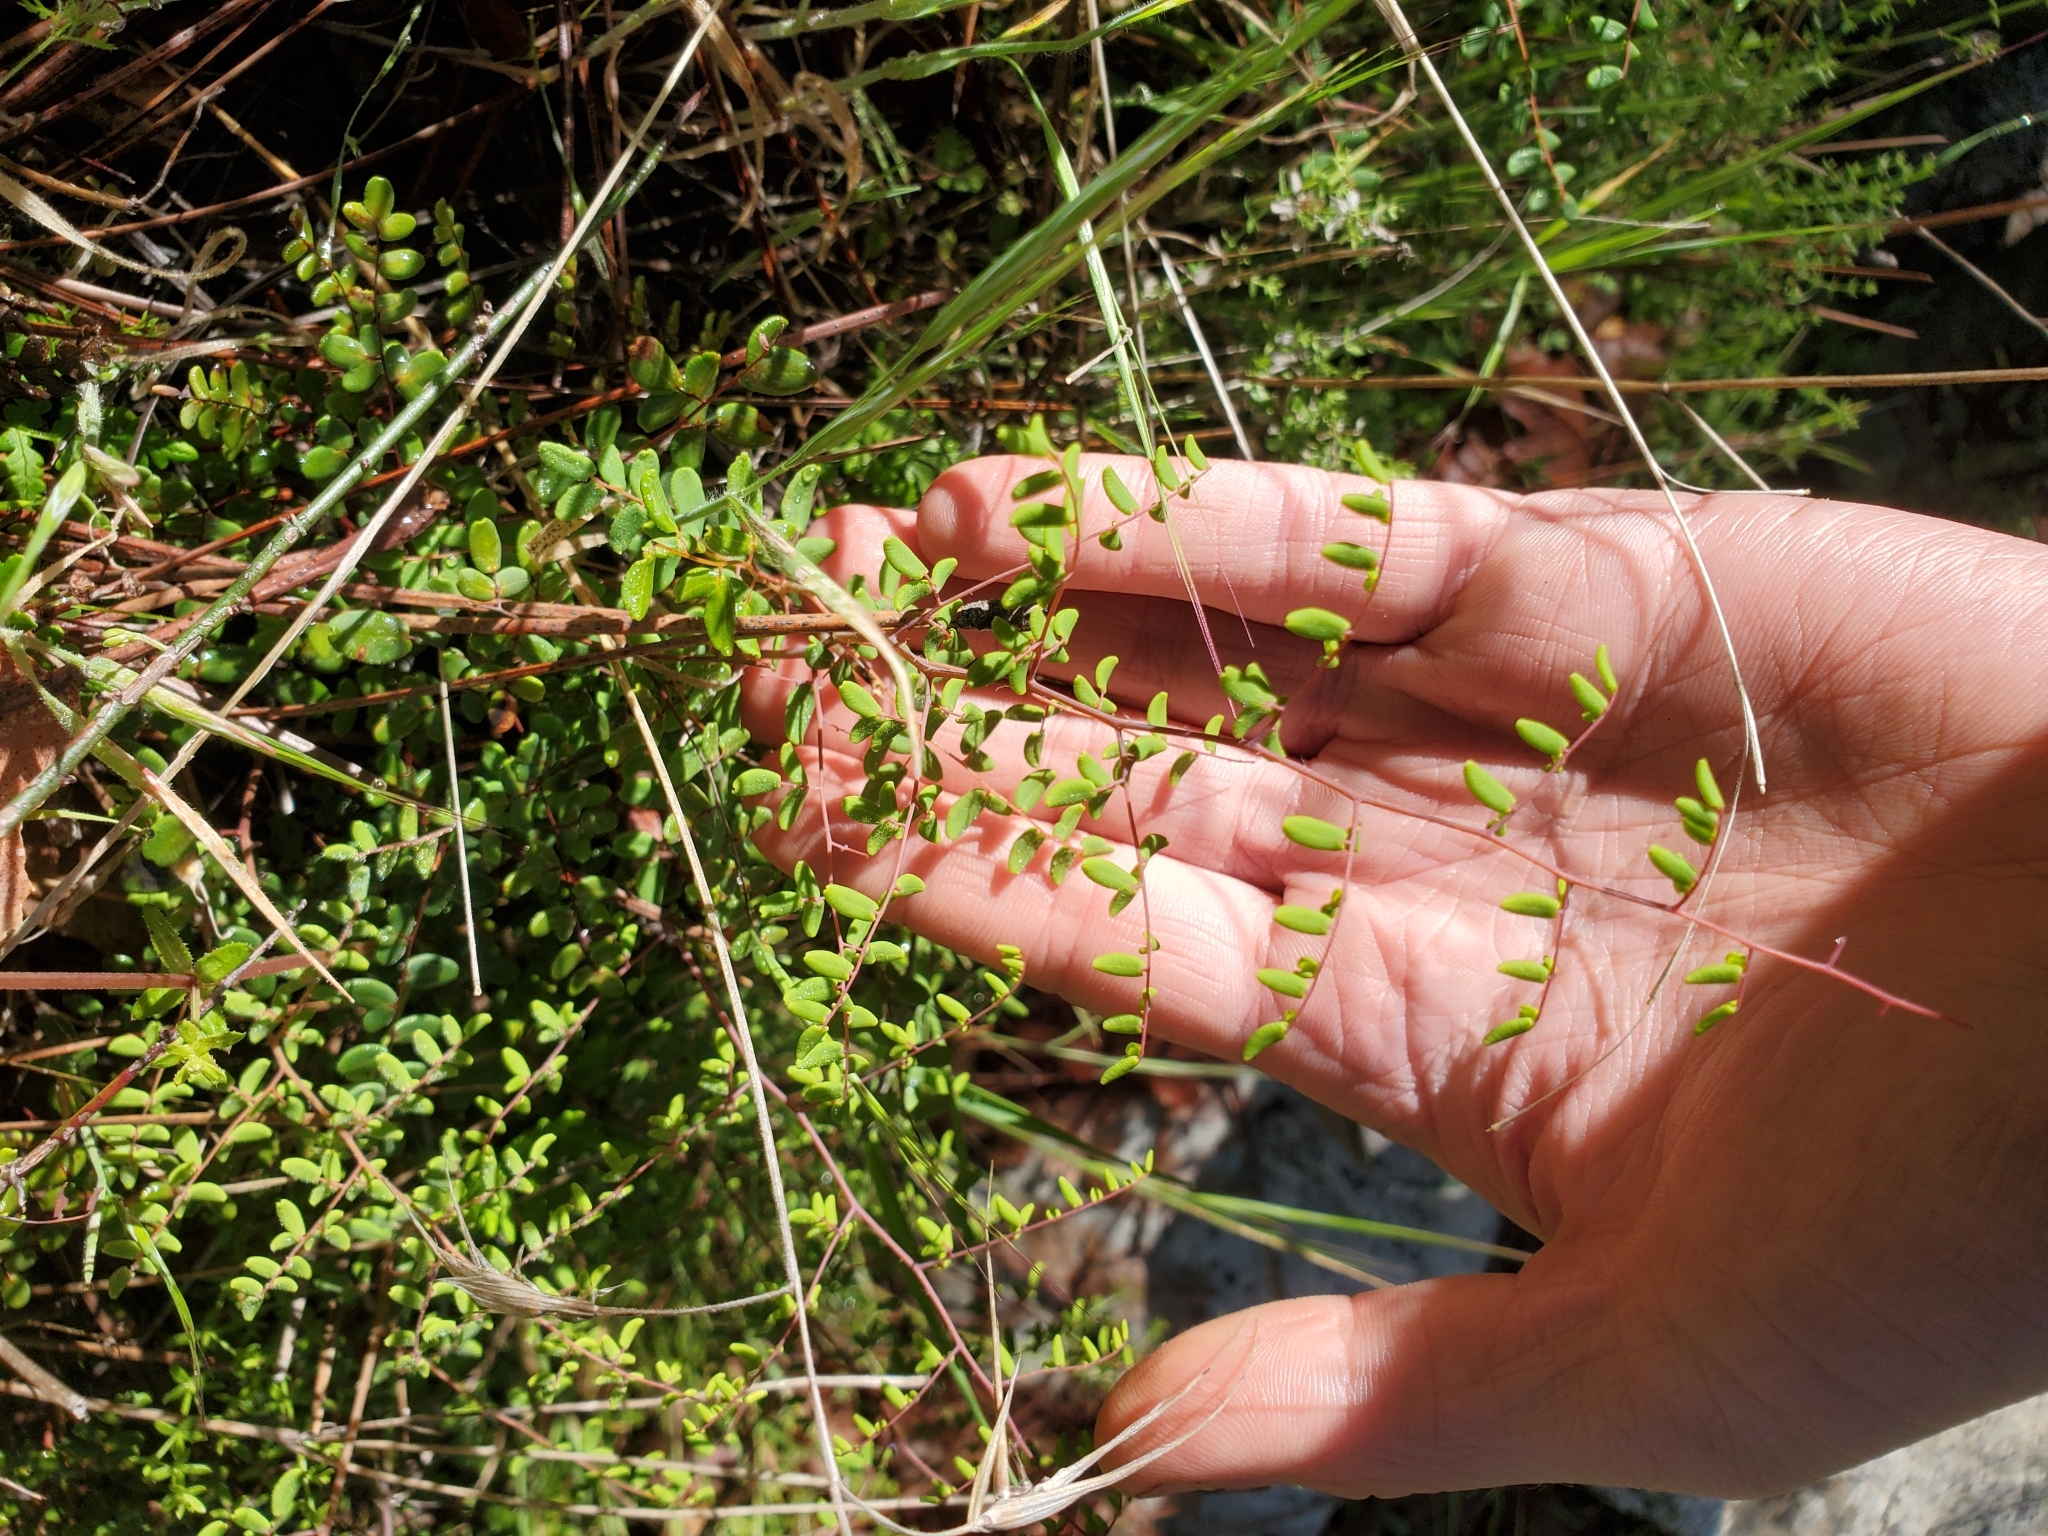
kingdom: Plantae
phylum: Tracheophyta
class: Polypodiopsida
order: Polypodiales
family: Pteridaceae
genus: Pellaea
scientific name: Pellaea andromedifolia
